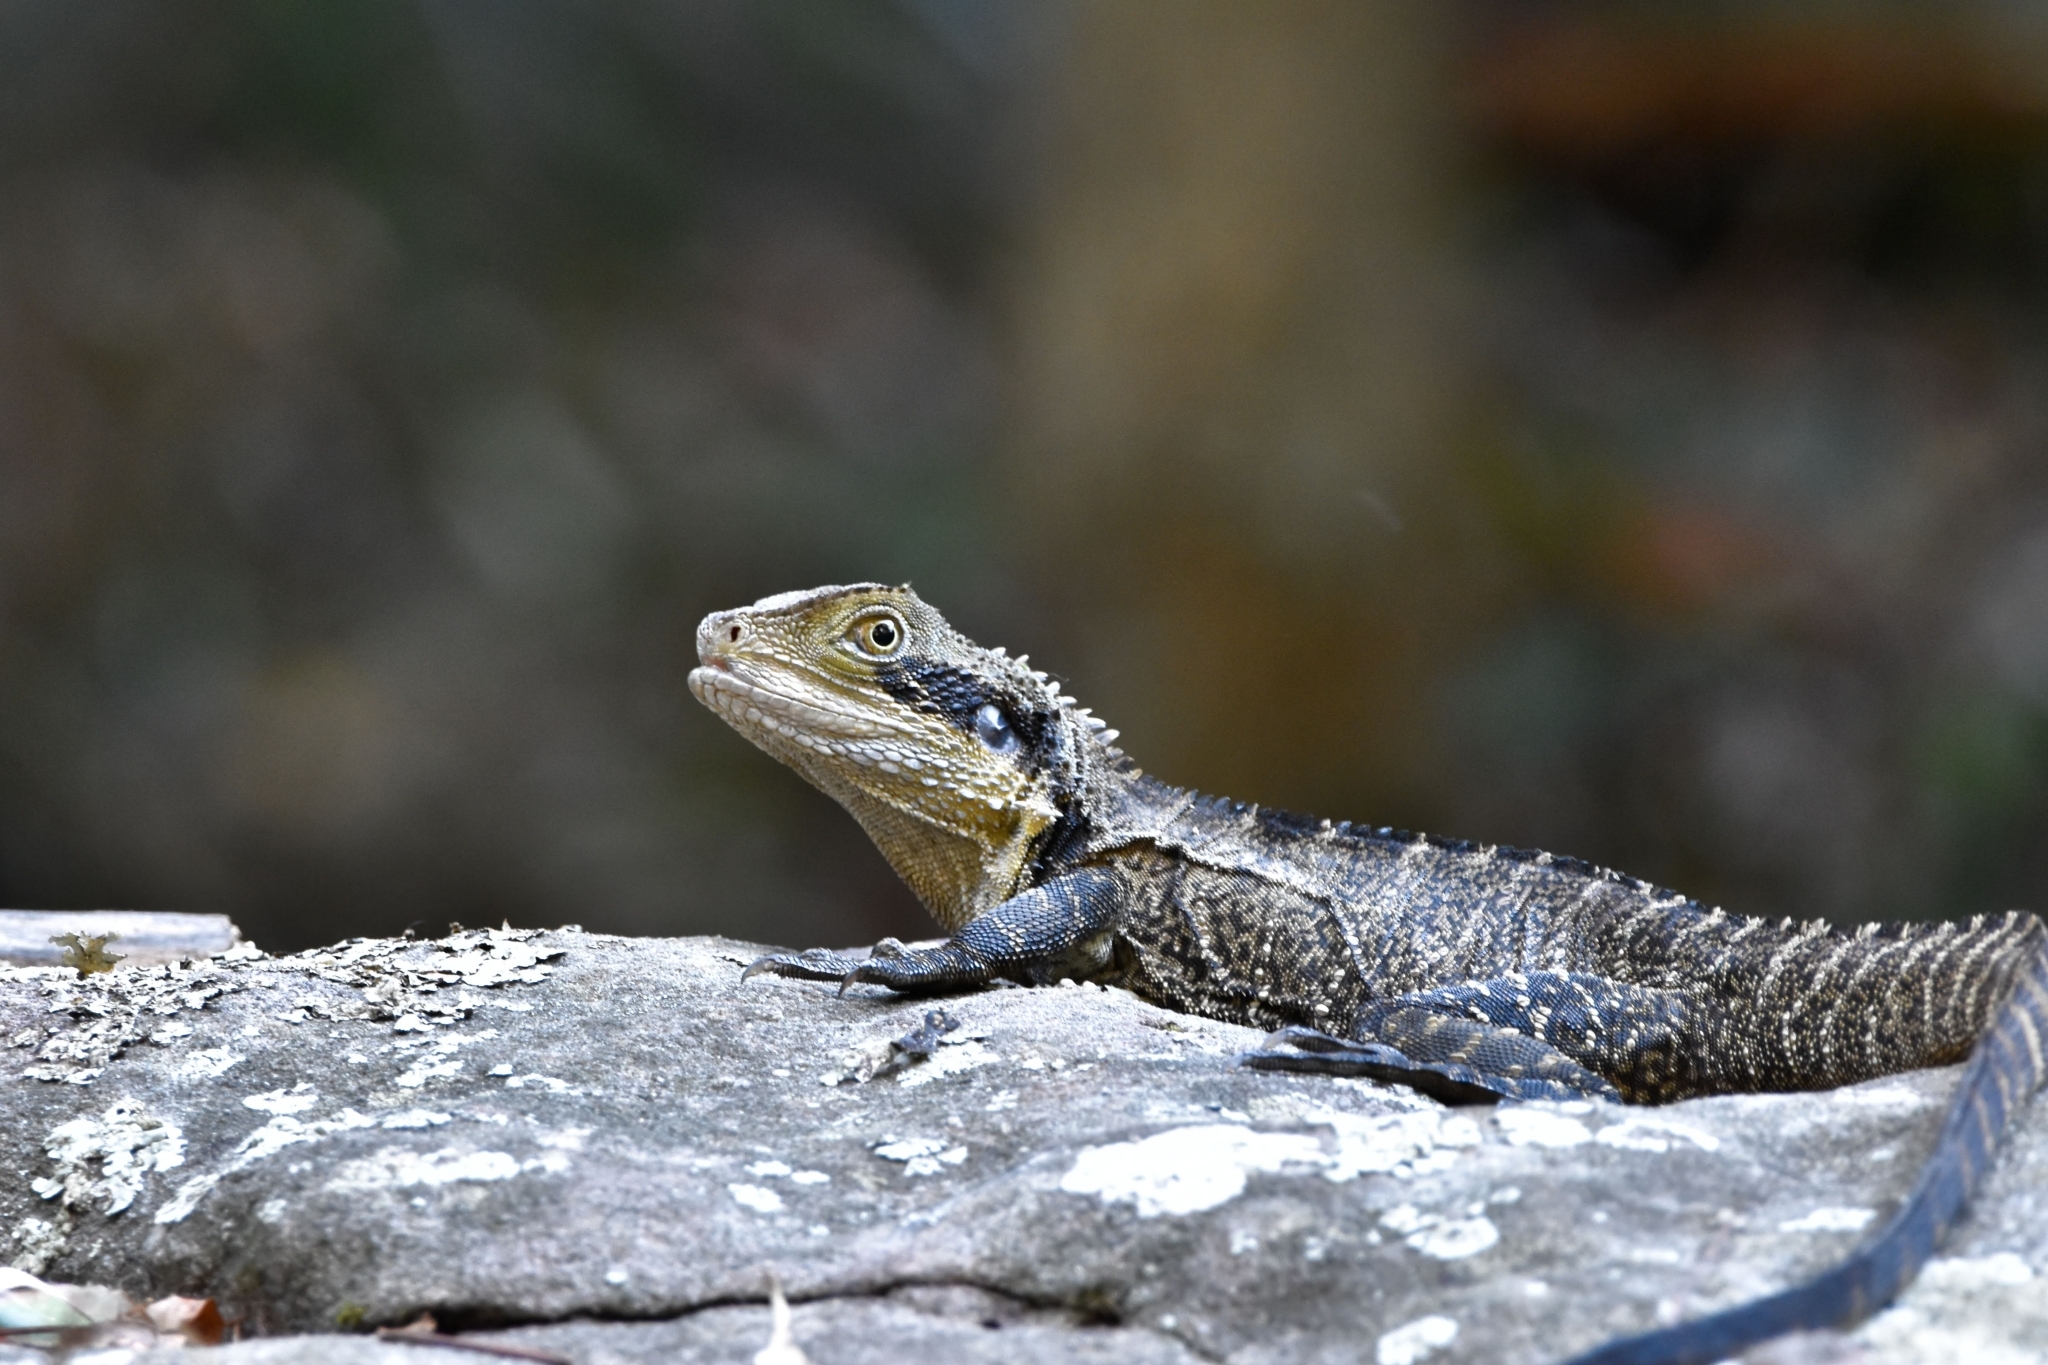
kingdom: Animalia
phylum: Chordata
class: Squamata
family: Agamidae
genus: Intellagama
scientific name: Intellagama lesueurii
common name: Eastern water dragon
